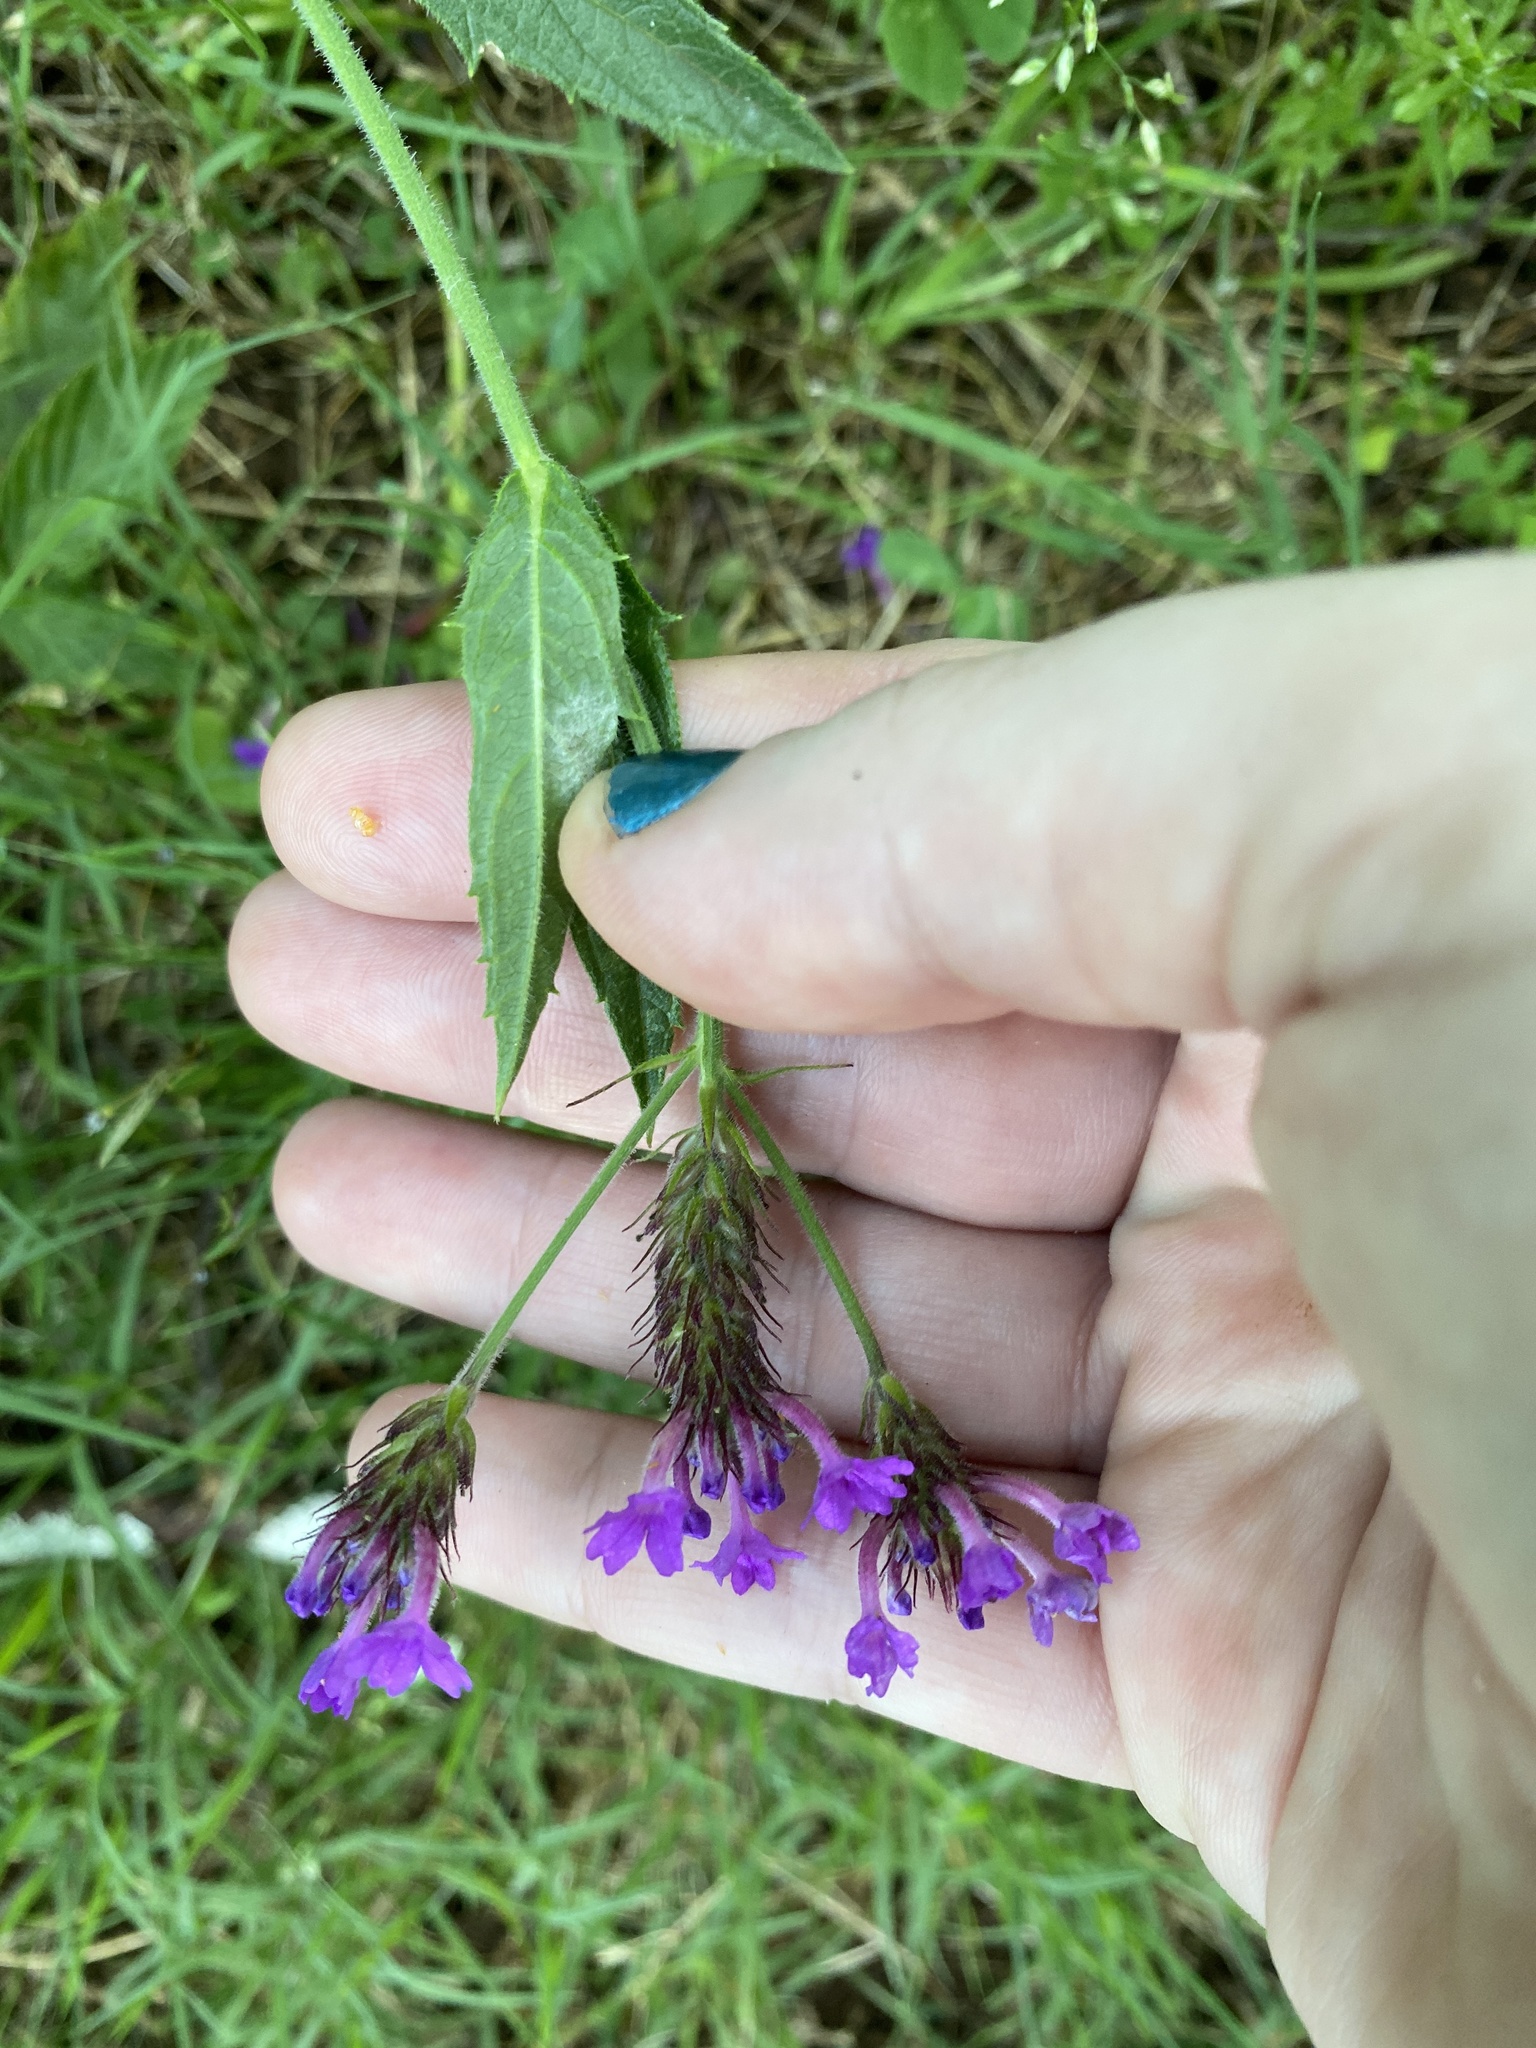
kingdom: Plantae
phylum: Tracheophyta
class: Magnoliopsida
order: Lamiales
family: Verbenaceae
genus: Verbena
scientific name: Verbena rigida
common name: Slender vervain
